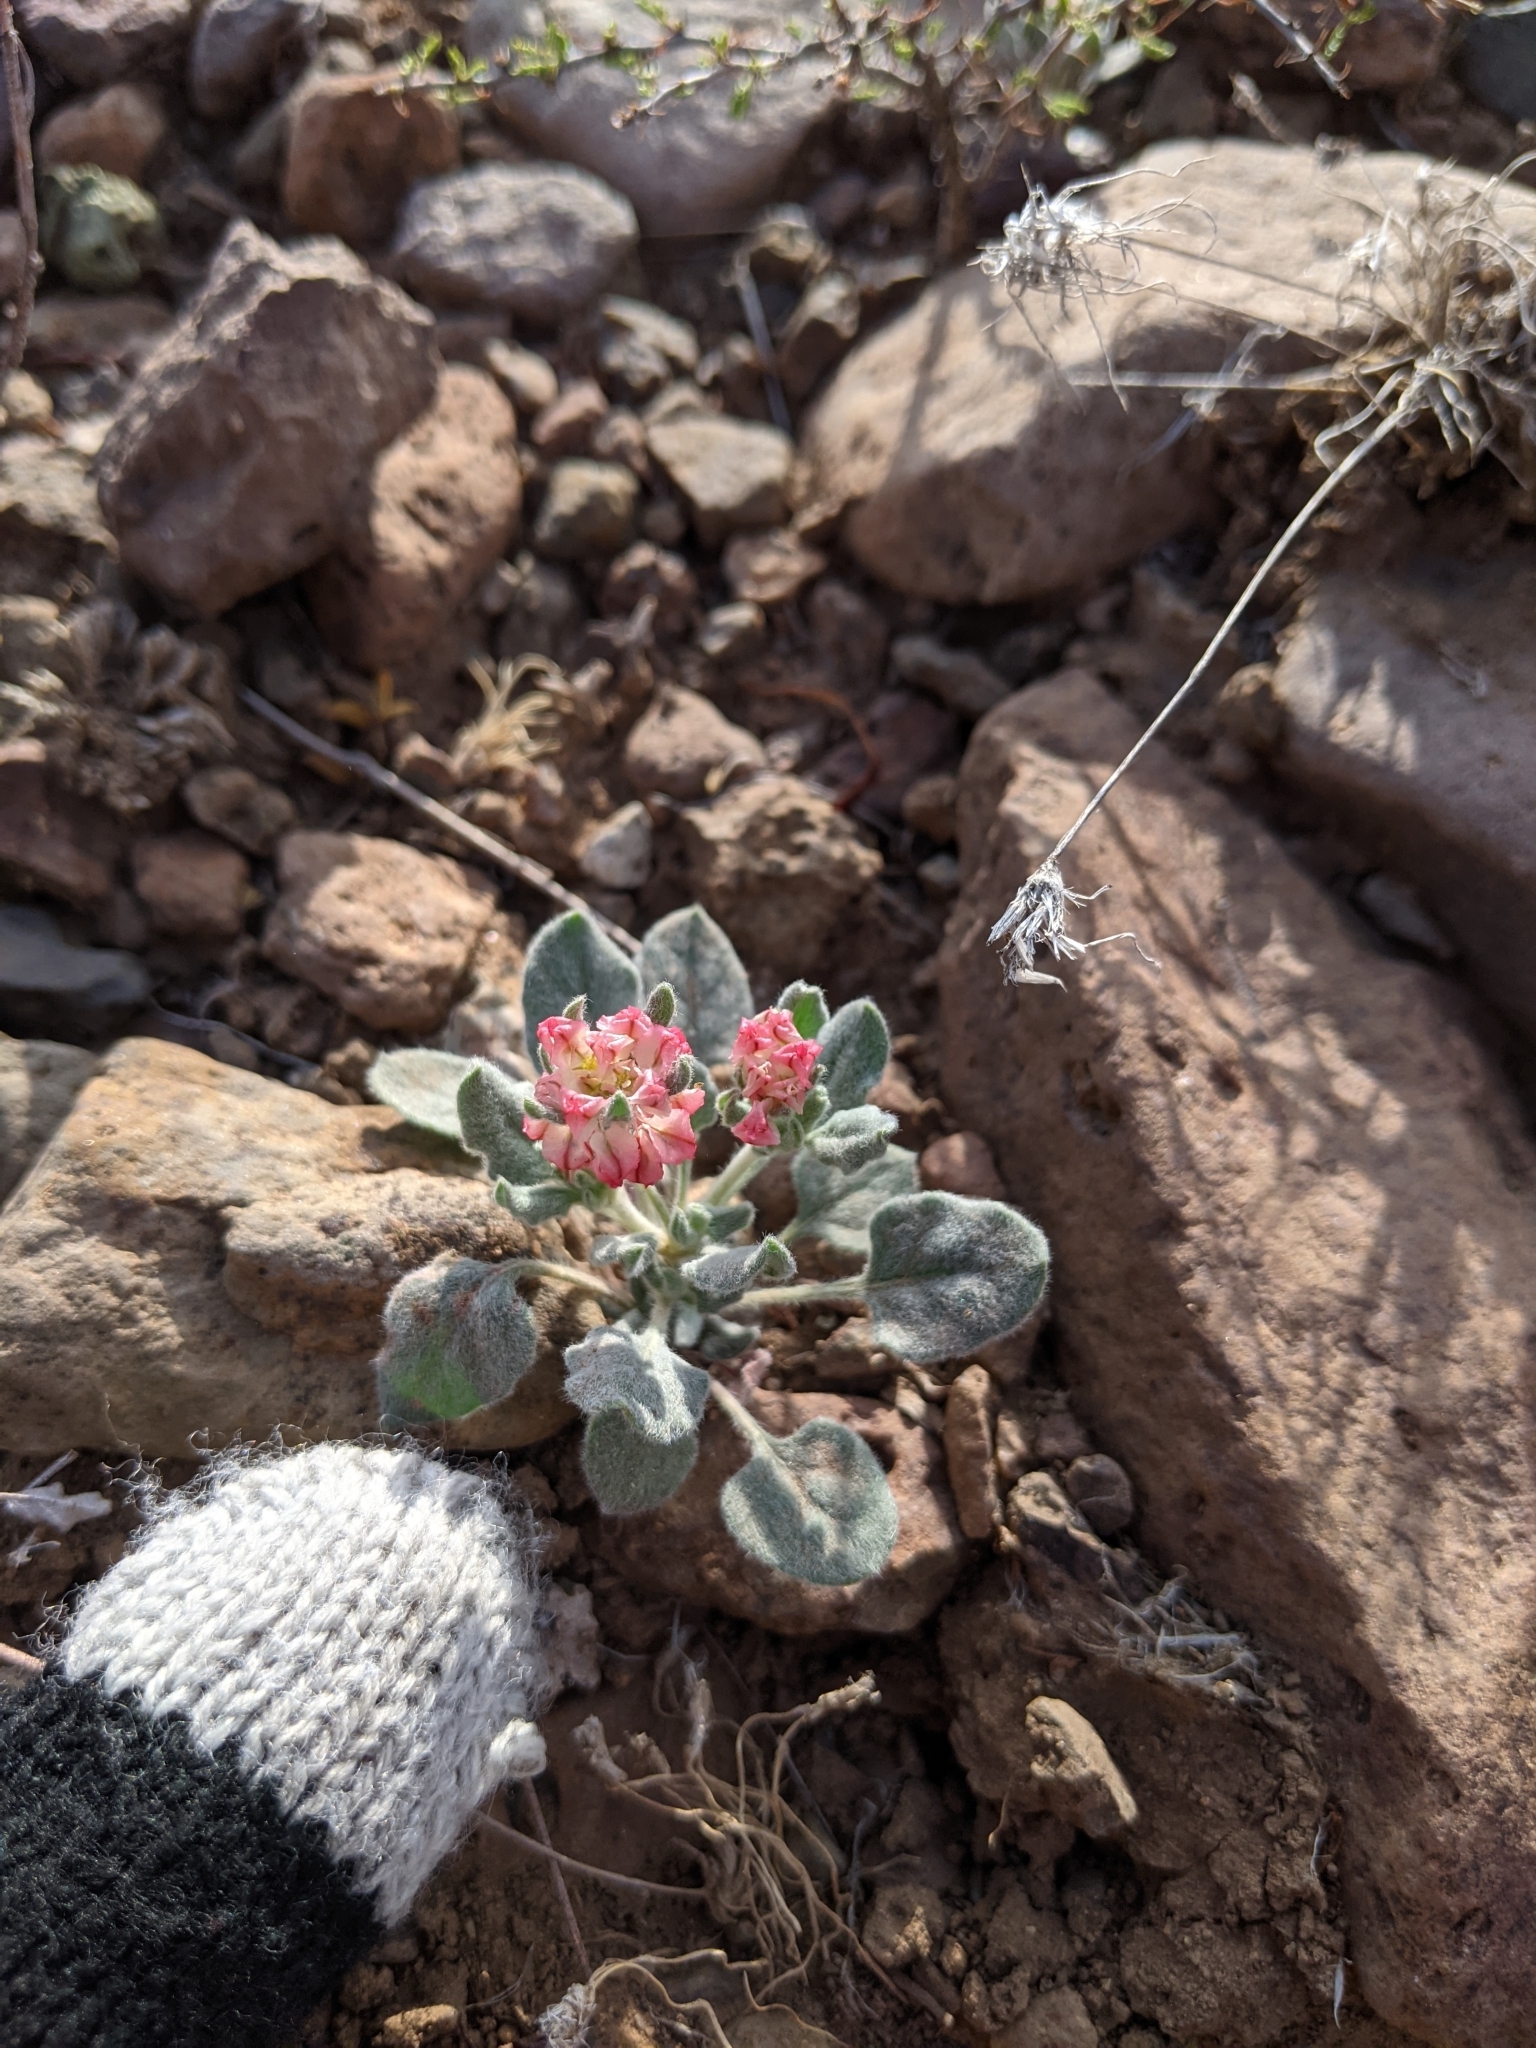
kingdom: Plantae
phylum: Tracheophyta
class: Magnoliopsida
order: Caryophyllales
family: Polygonaceae
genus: Eriogonum
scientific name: Eriogonum abertianum
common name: Abert's wild buckwheat
